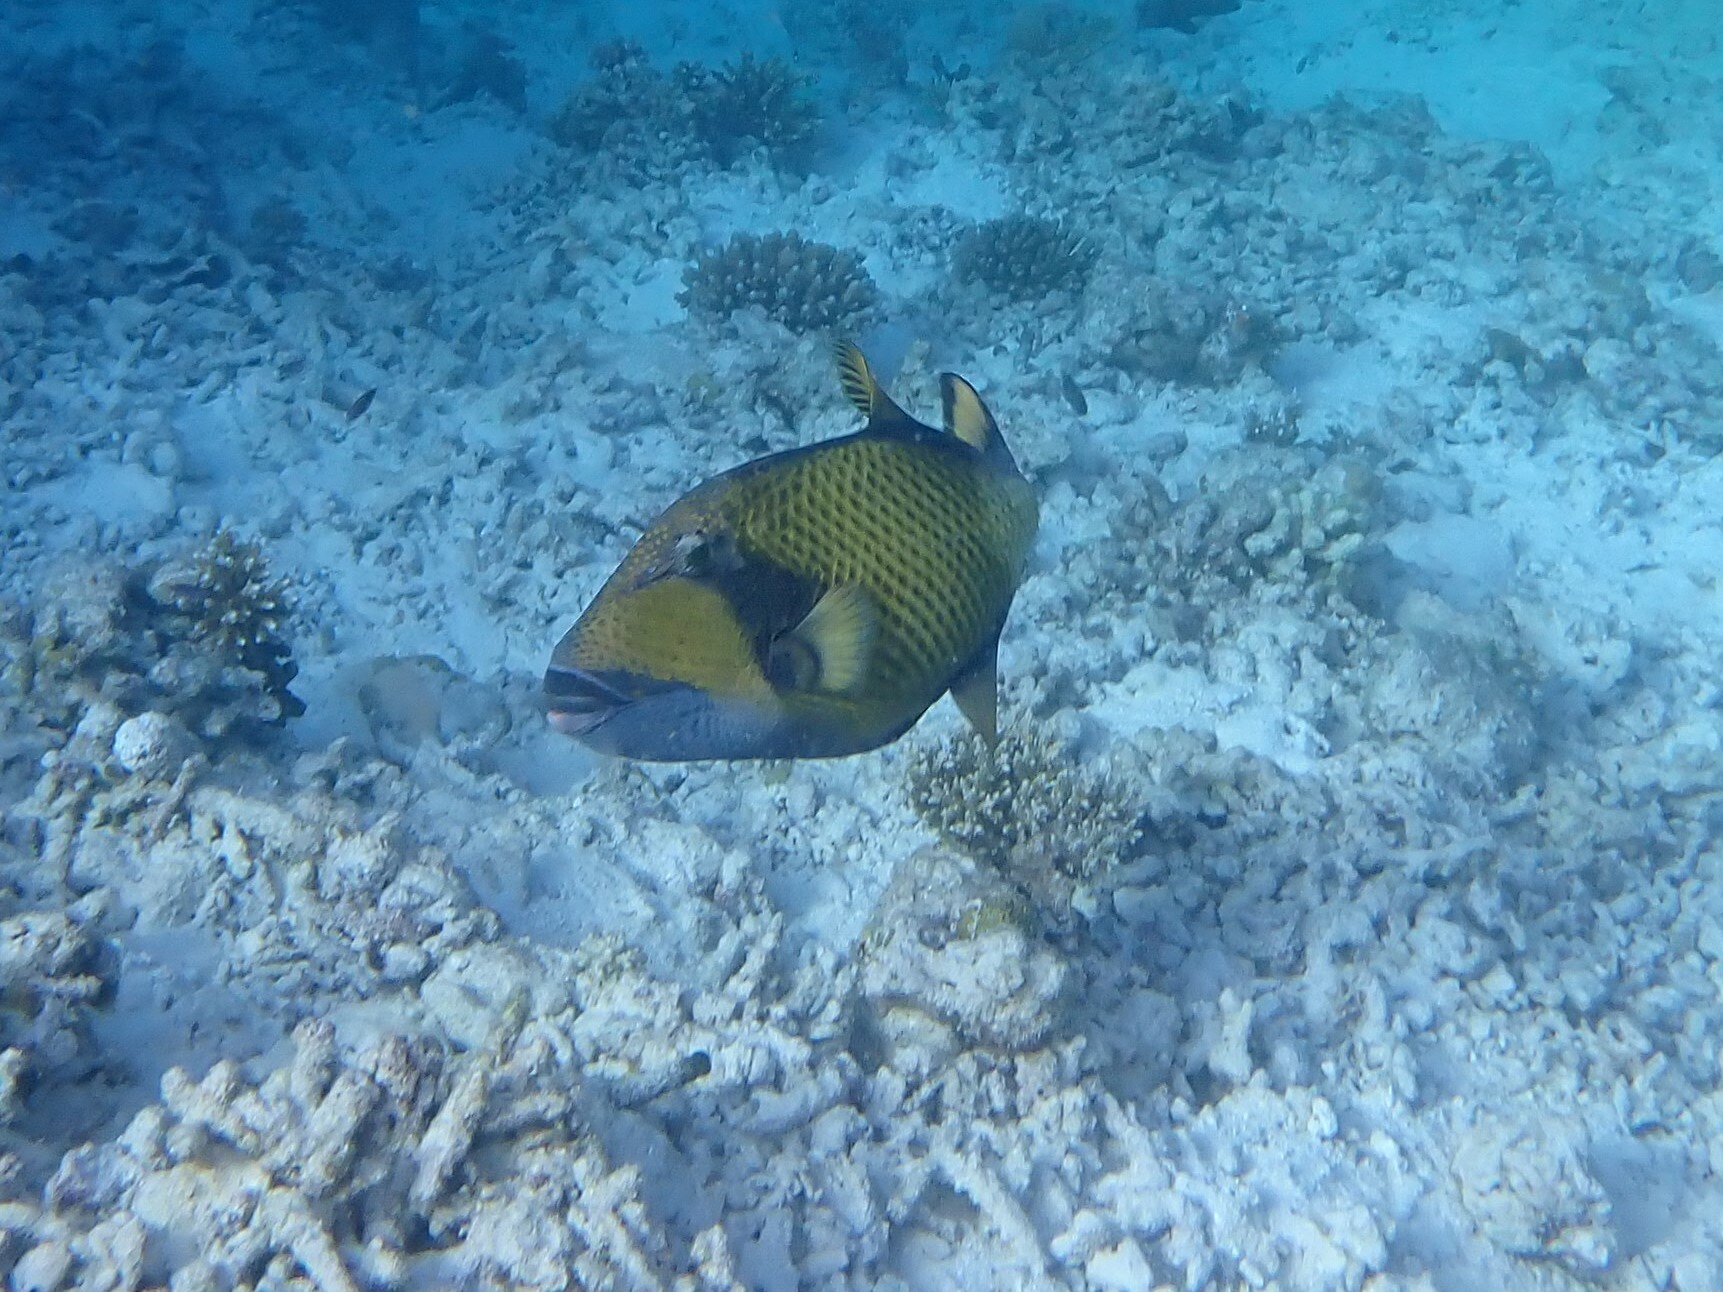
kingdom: Animalia
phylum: Chordata
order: Tetraodontiformes
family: Balistidae
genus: Balistoides
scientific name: Balistoides viridescens
